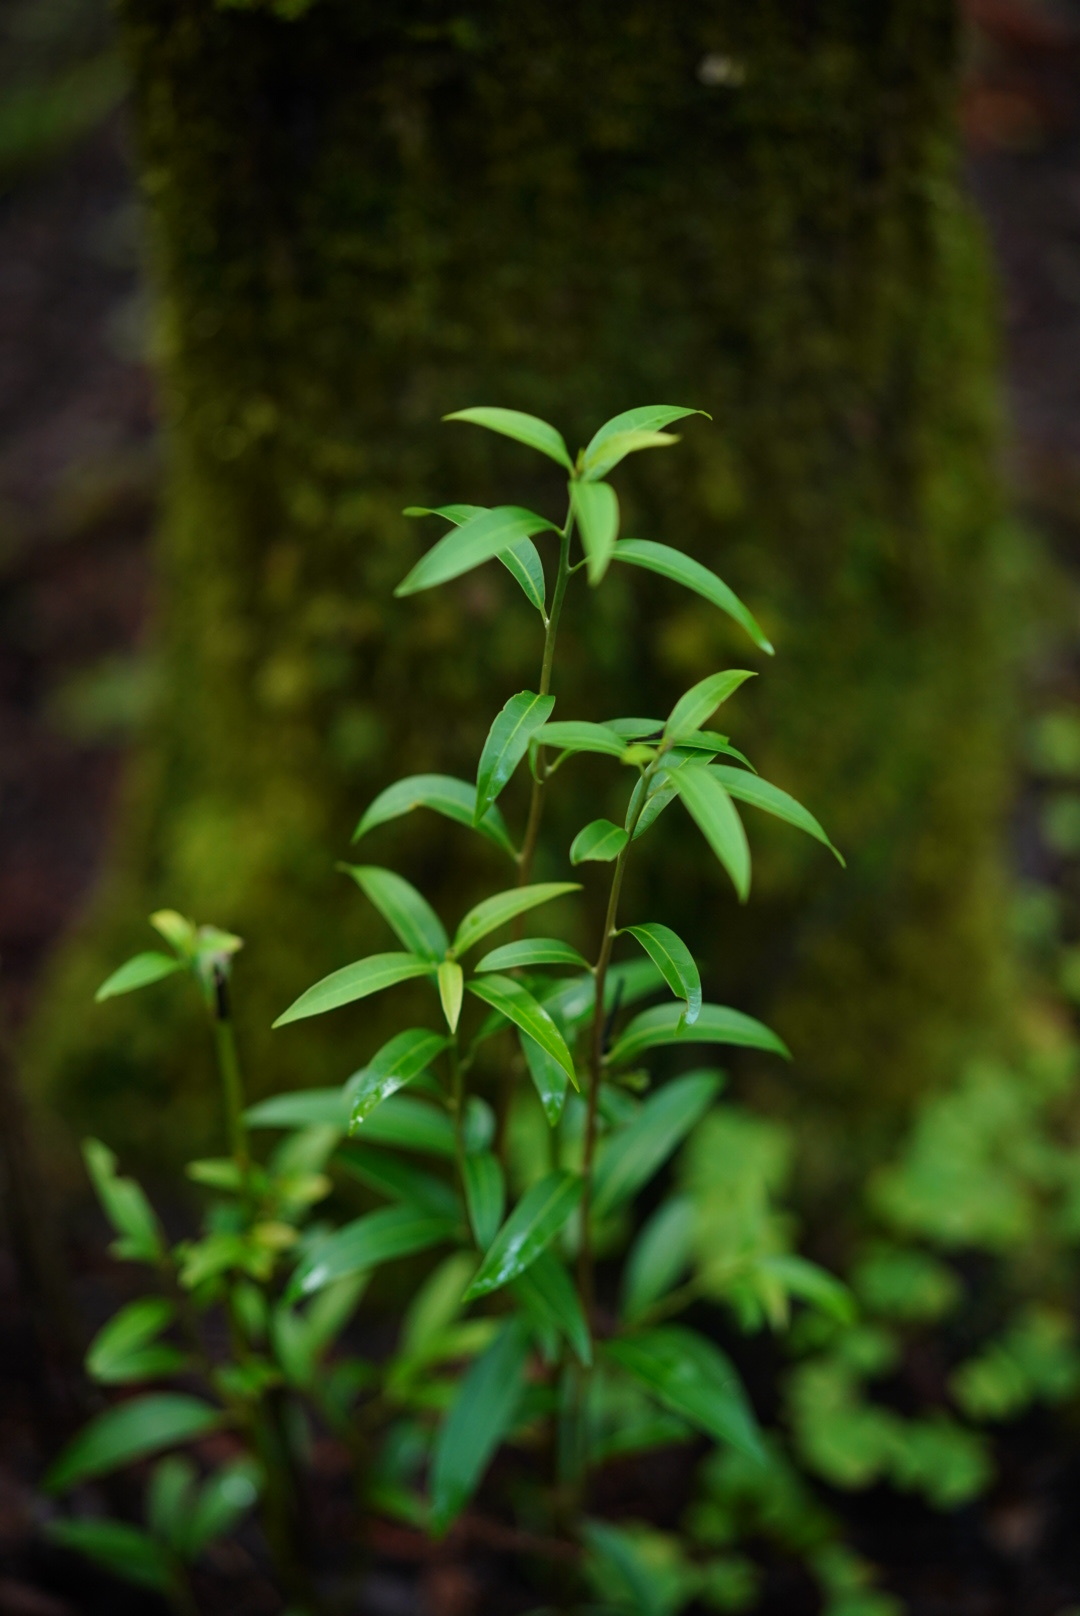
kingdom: Plantae
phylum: Tracheophyta
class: Magnoliopsida
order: Laurales
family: Lauraceae
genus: Umbellularia
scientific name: Umbellularia californica
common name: California bay
